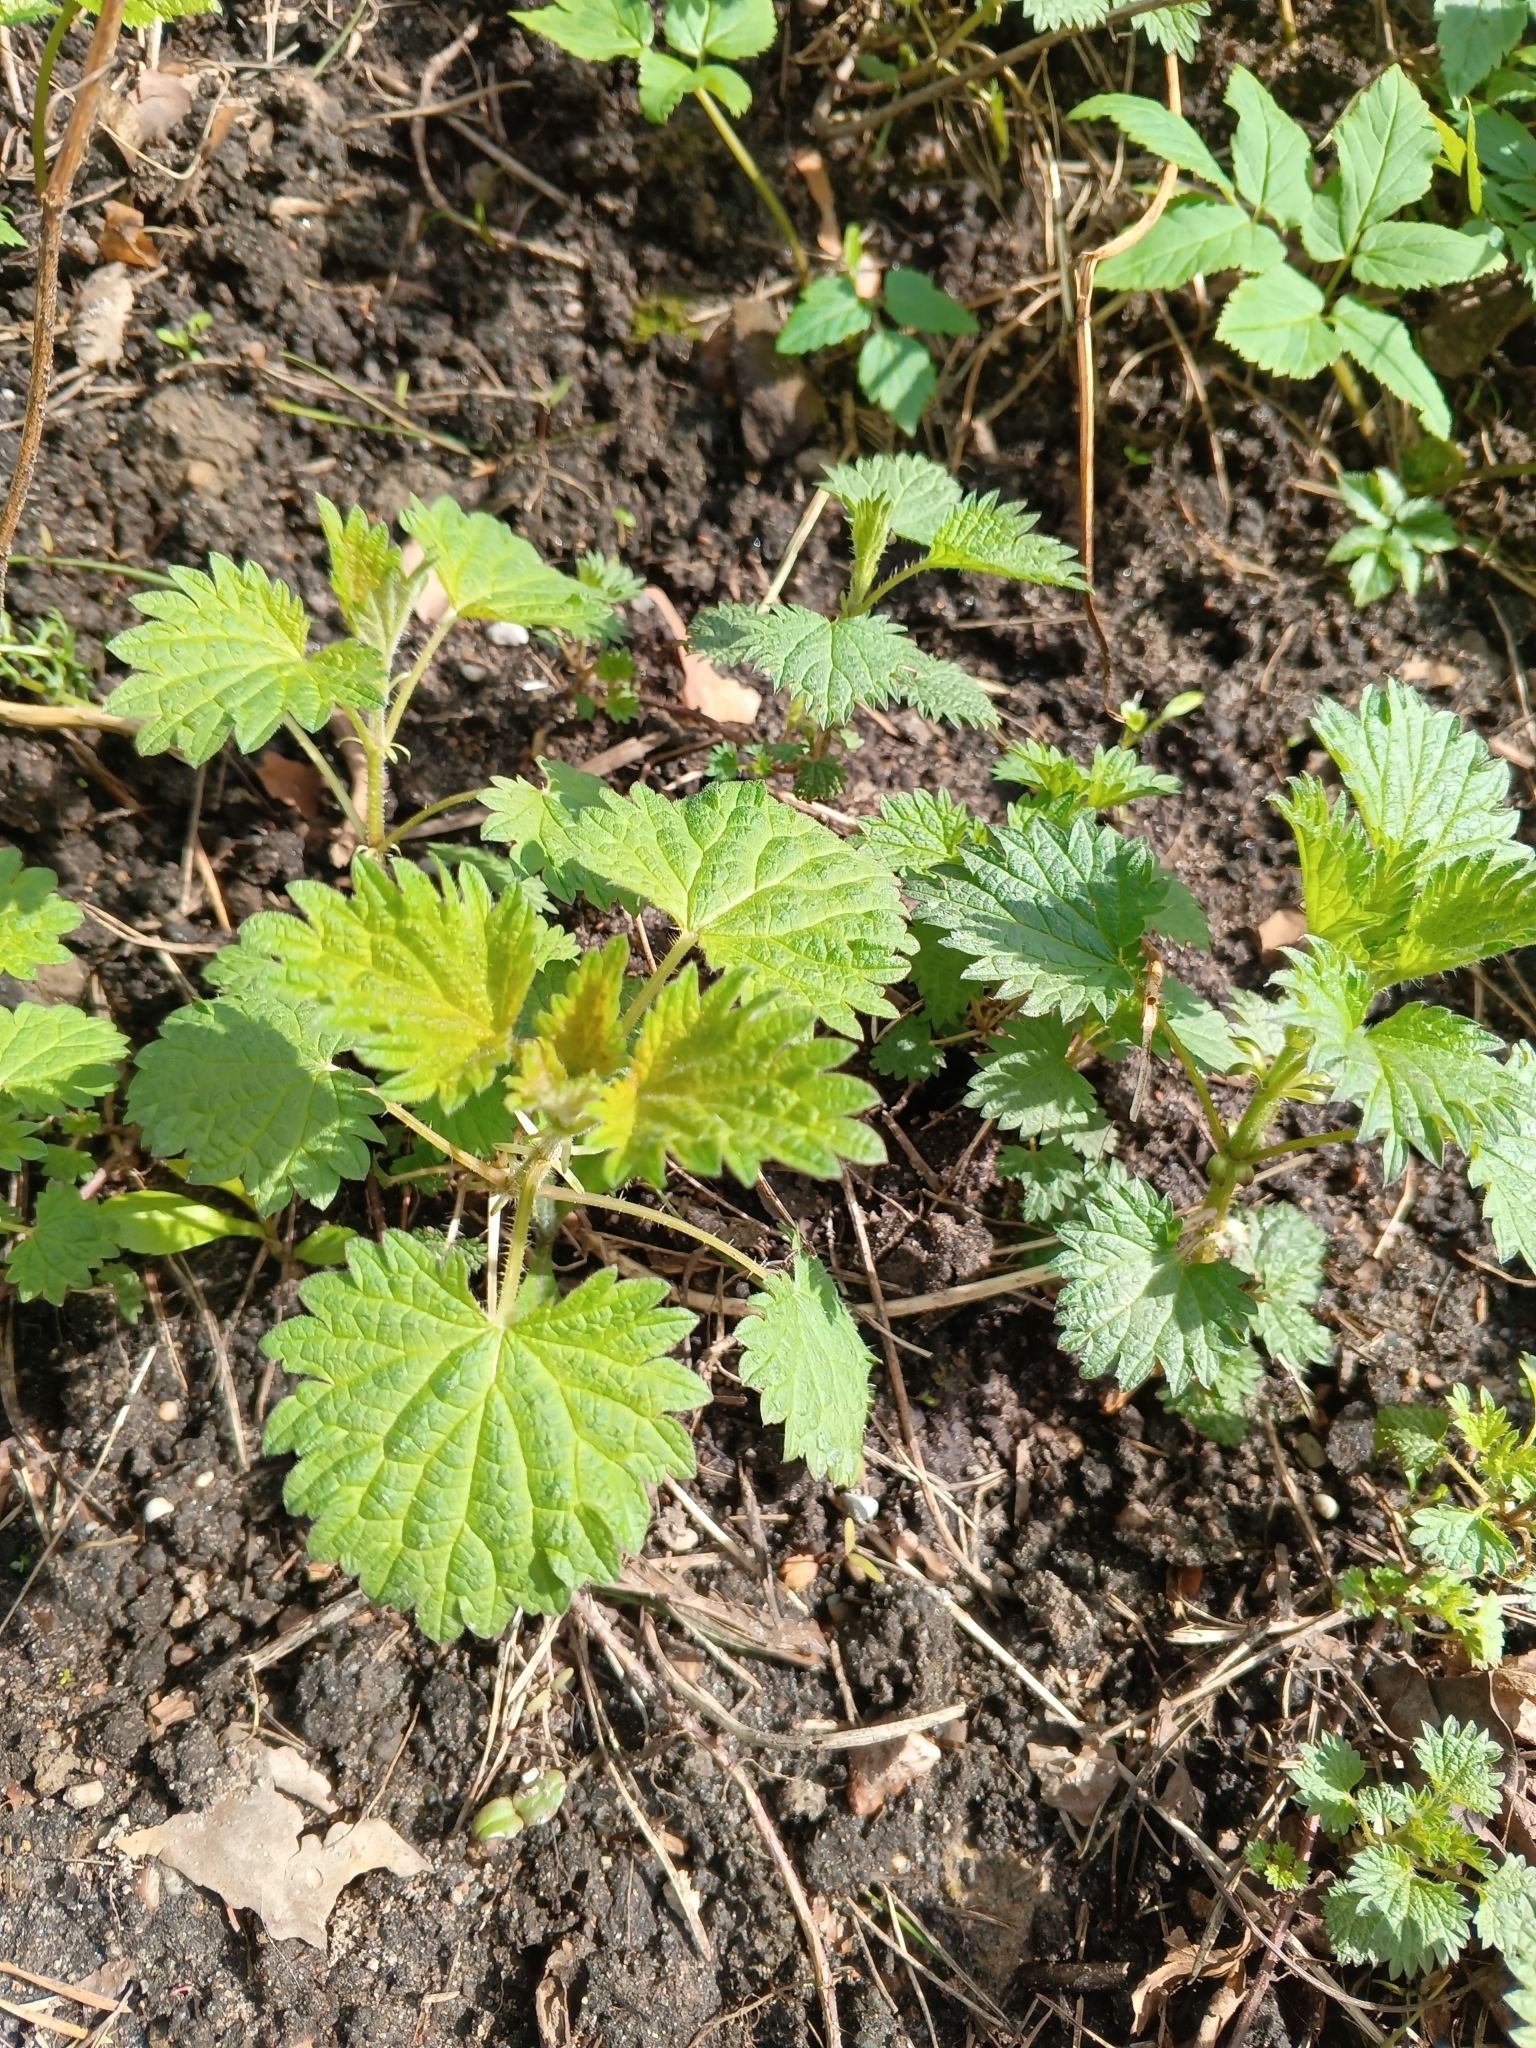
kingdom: Plantae
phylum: Tracheophyta
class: Magnoliopsida
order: Rosales
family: Urticaceae
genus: Urtica
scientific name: Urtica dioica
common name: Common nettle
